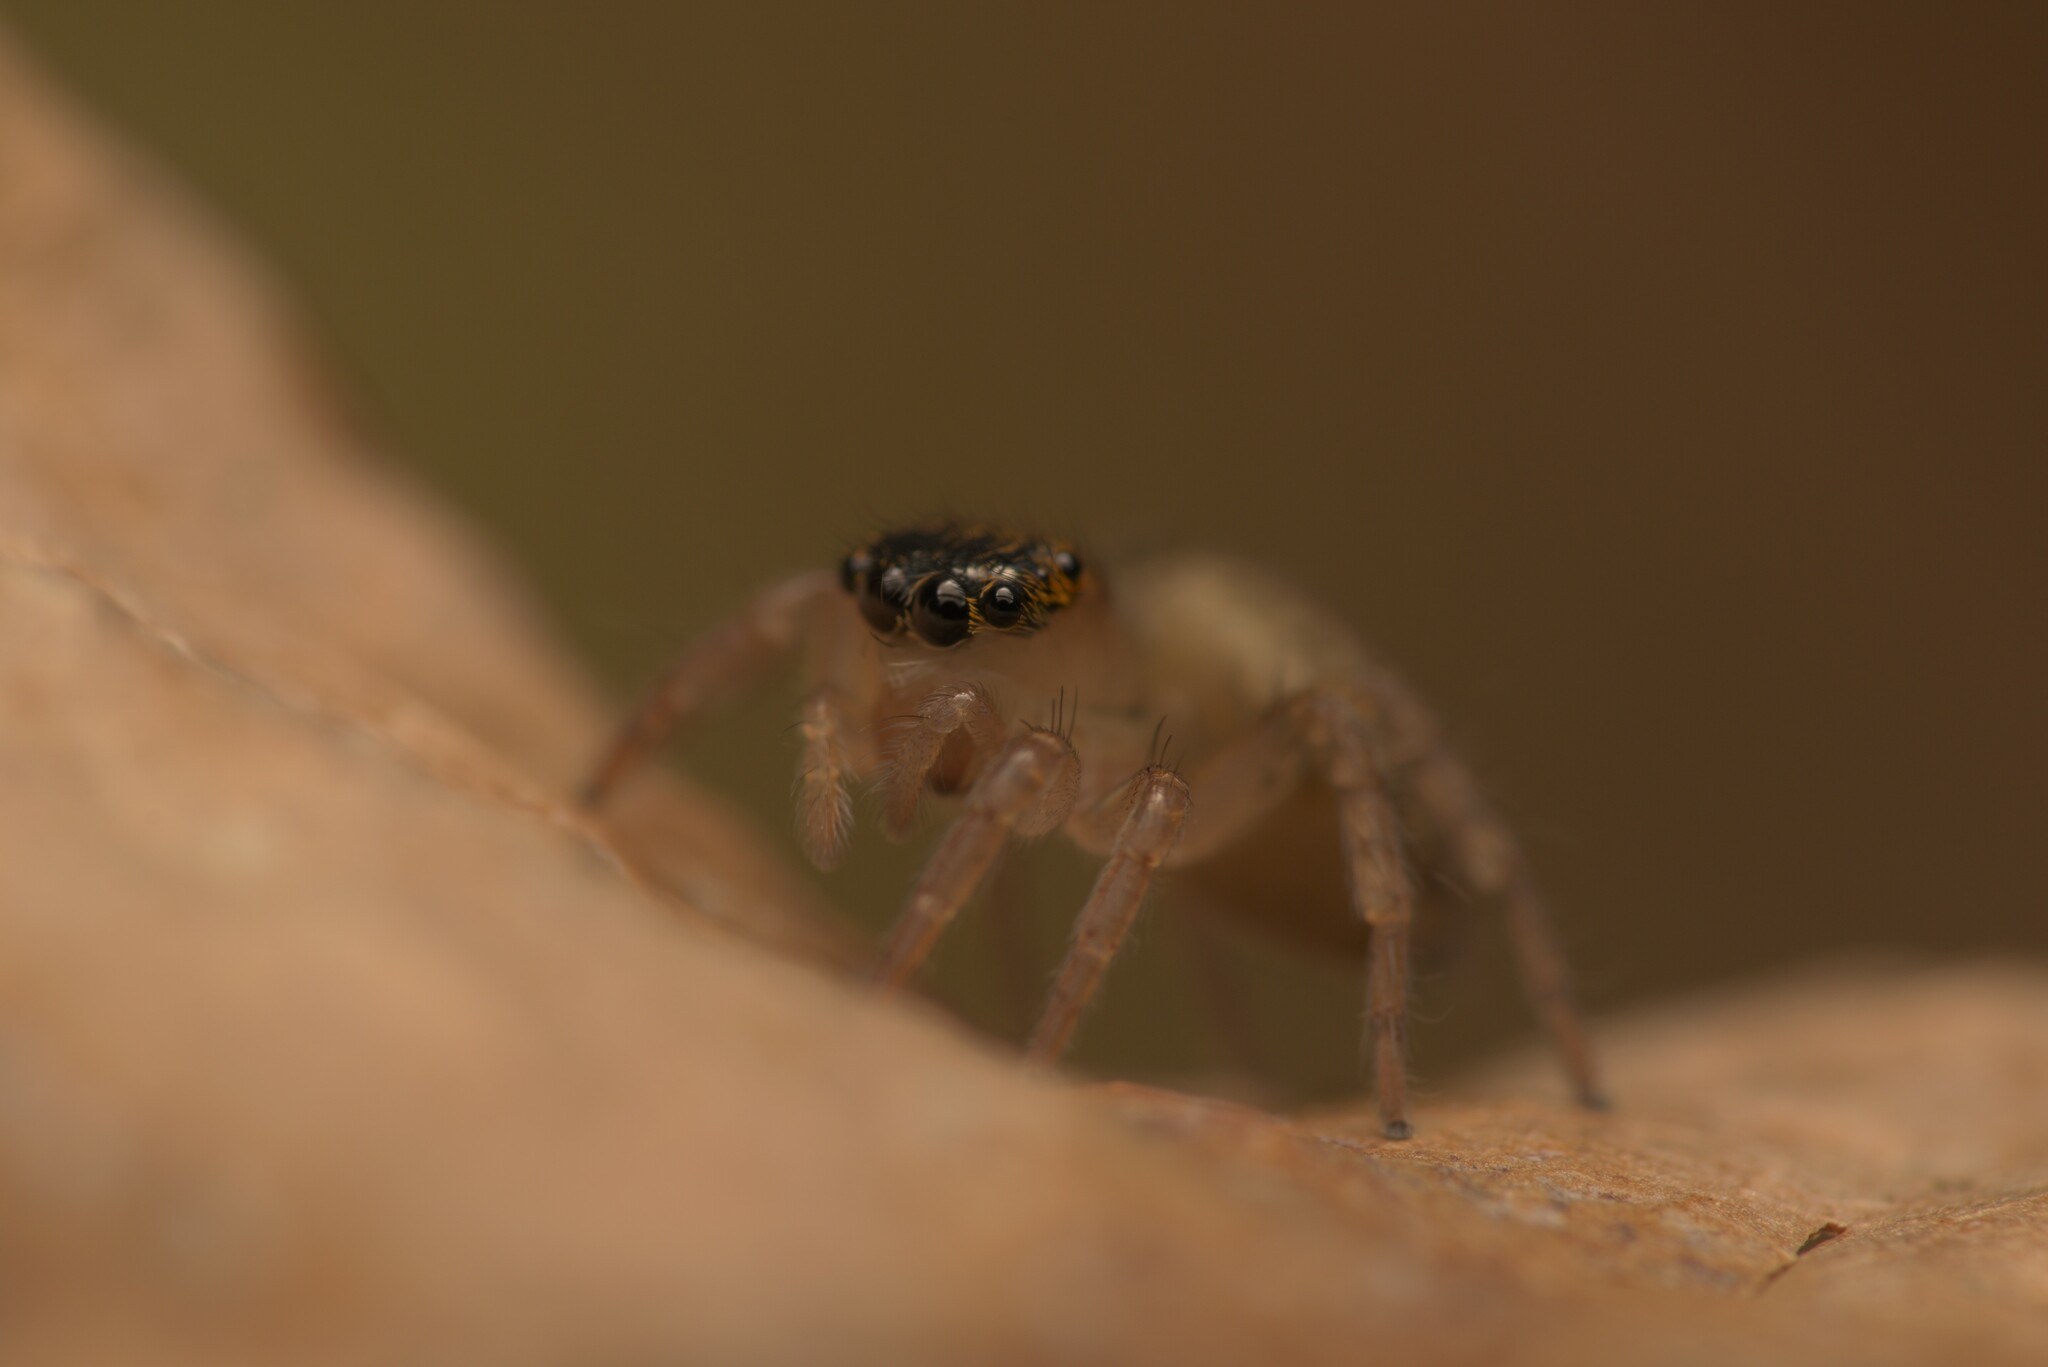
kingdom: Animalia
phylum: Arthropoda
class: Arachnida
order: Araneae
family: Salticidae
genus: Saitis
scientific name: Saitis barbipes
